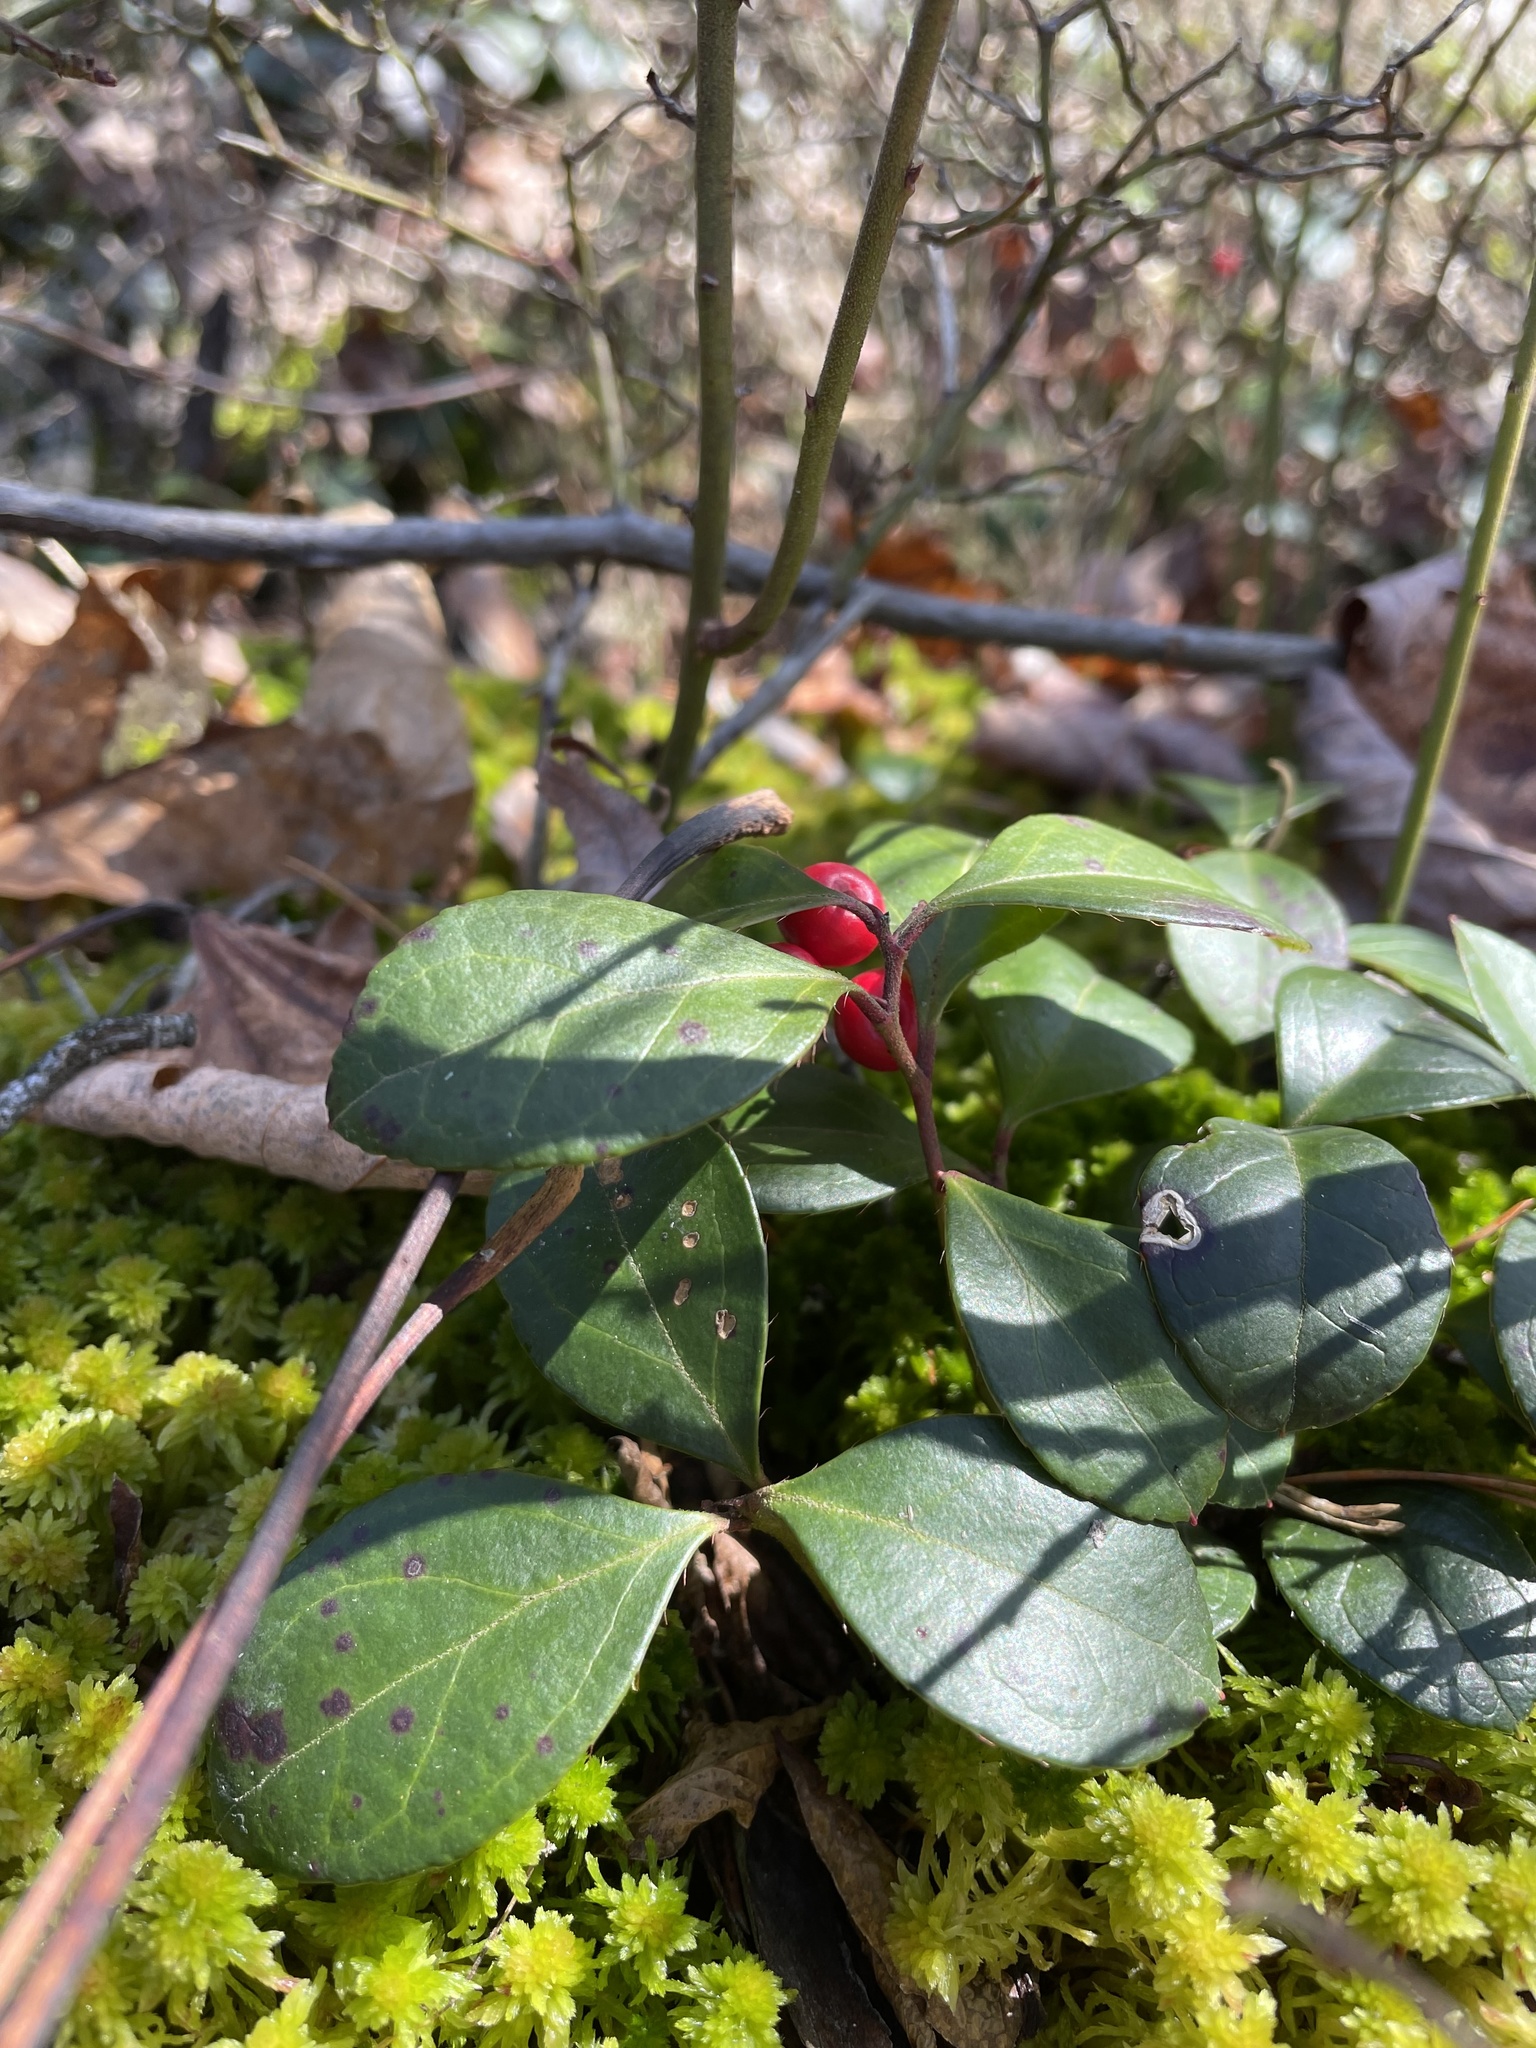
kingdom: Plantae
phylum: Tracheophyta
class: Magnoliopsida
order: Ericales
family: Ericaceae
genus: Gaultheria
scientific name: Gaultheria procumbens
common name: Checkerberry
